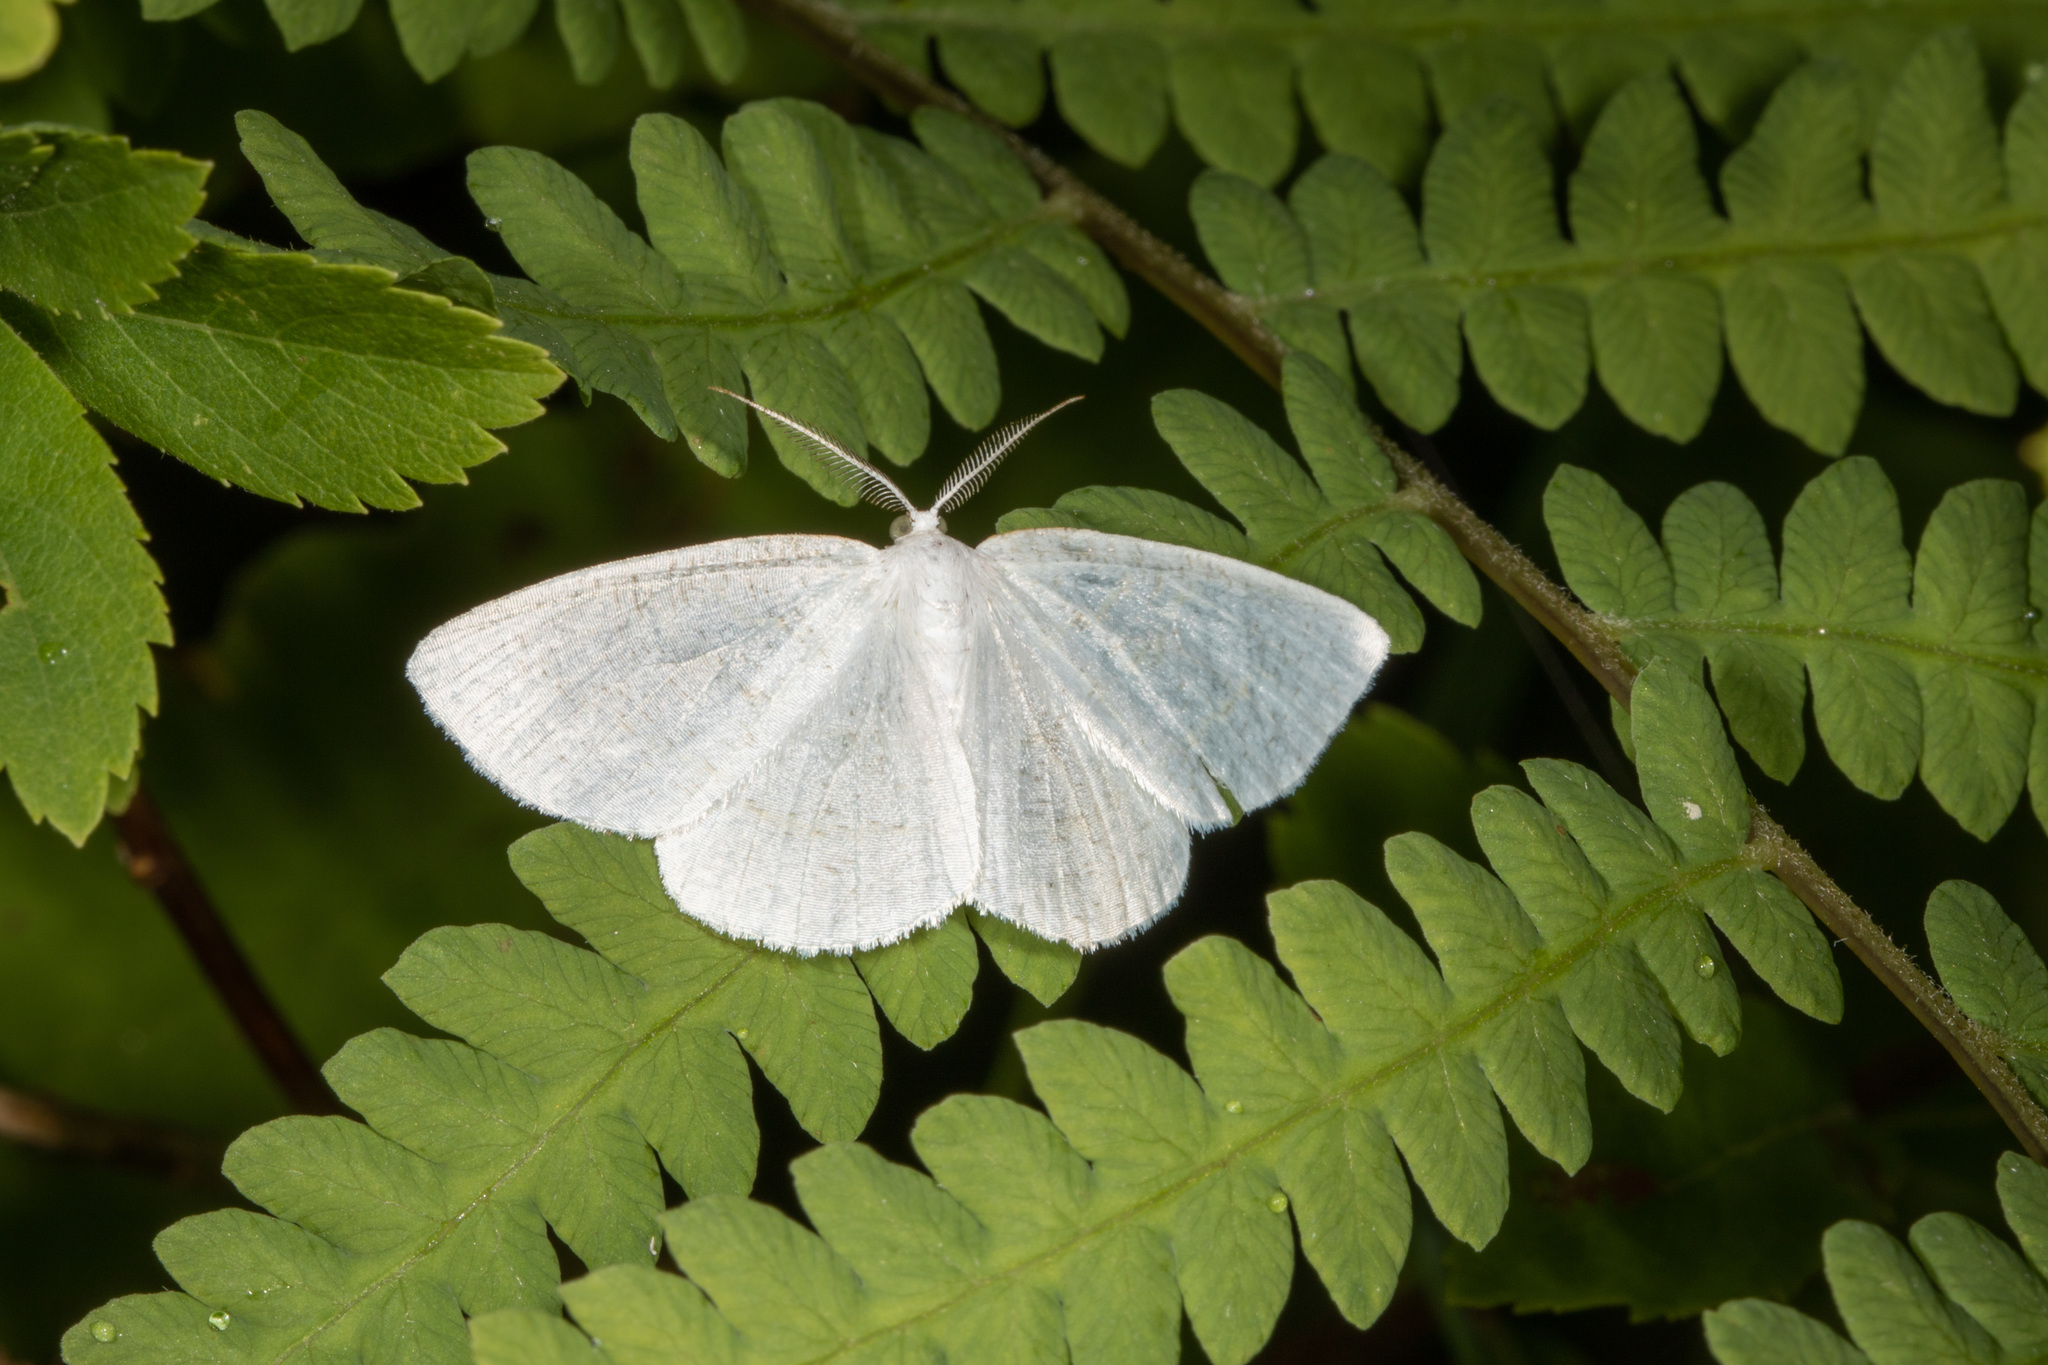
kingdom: Animalia
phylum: Arthropoda
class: Insecta
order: Lepidoptera
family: Geometridae
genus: Cabera
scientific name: Cabera variolaria
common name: Pink-striped willow spanworm
